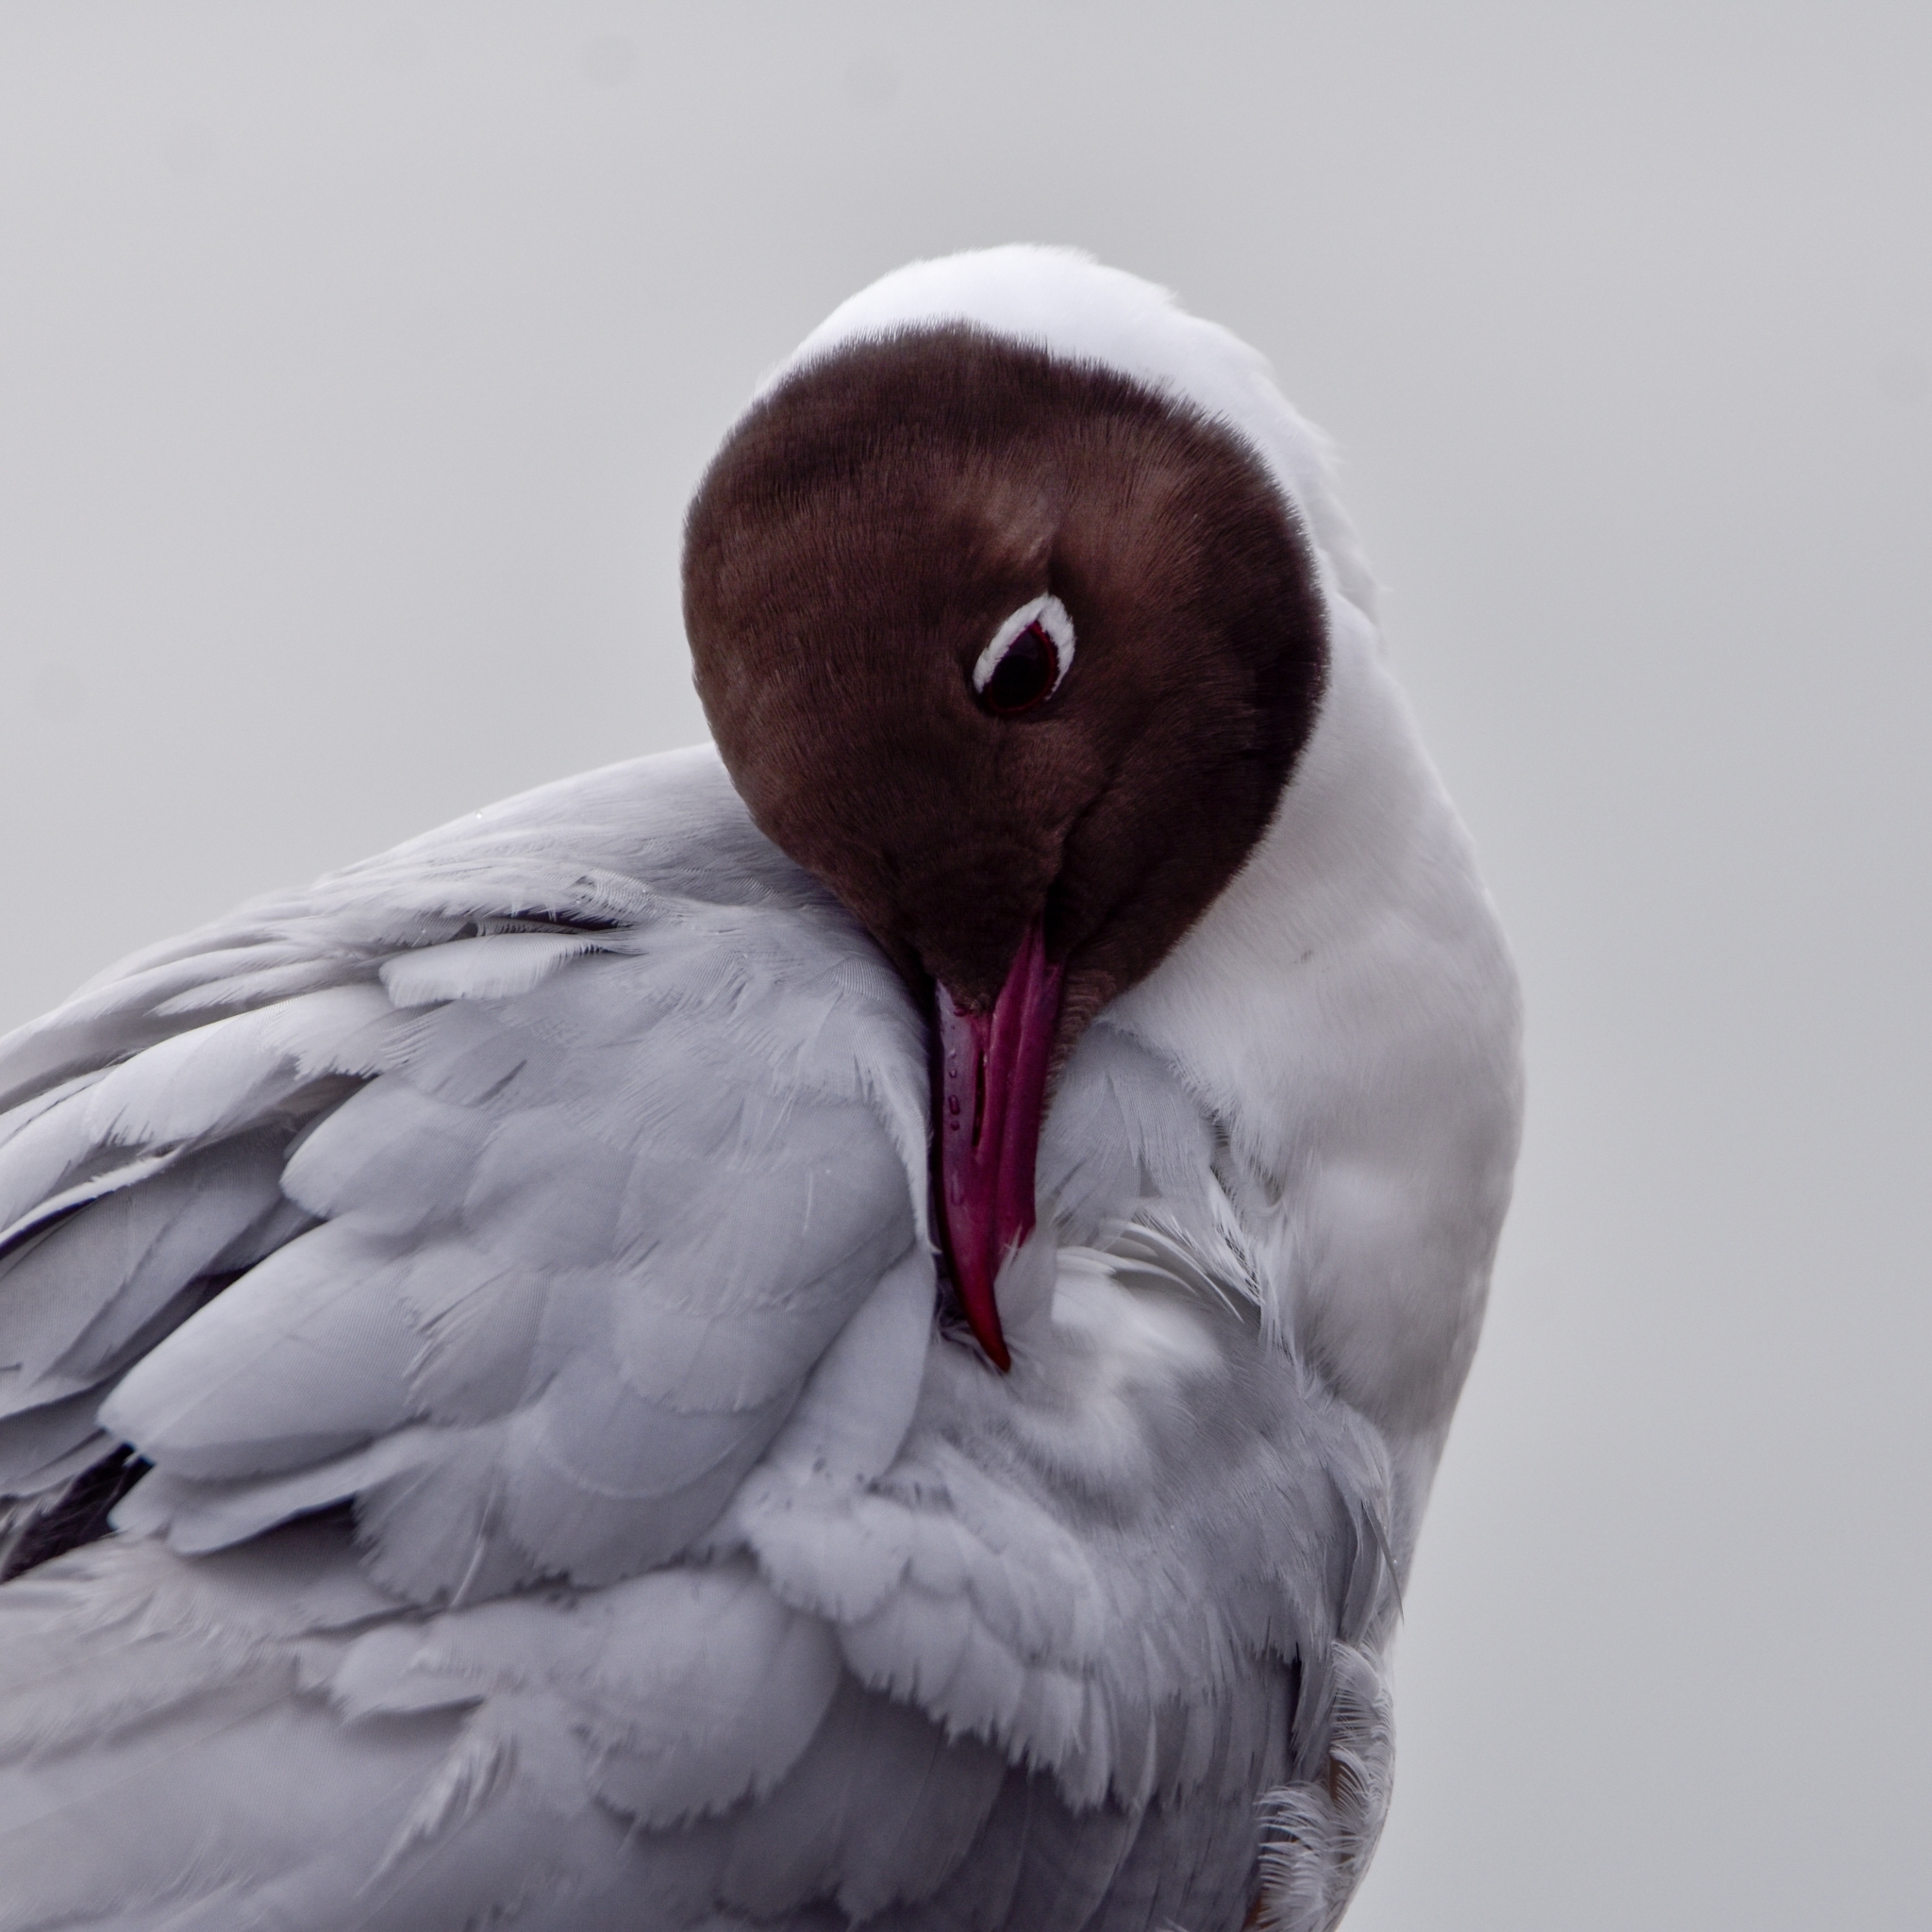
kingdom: Animalia
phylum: Chordata
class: Aves
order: Charadriiformes
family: Laridae
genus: Chroicocephalus
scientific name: Chroicocephalus ridibundus
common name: Black-headed gull
